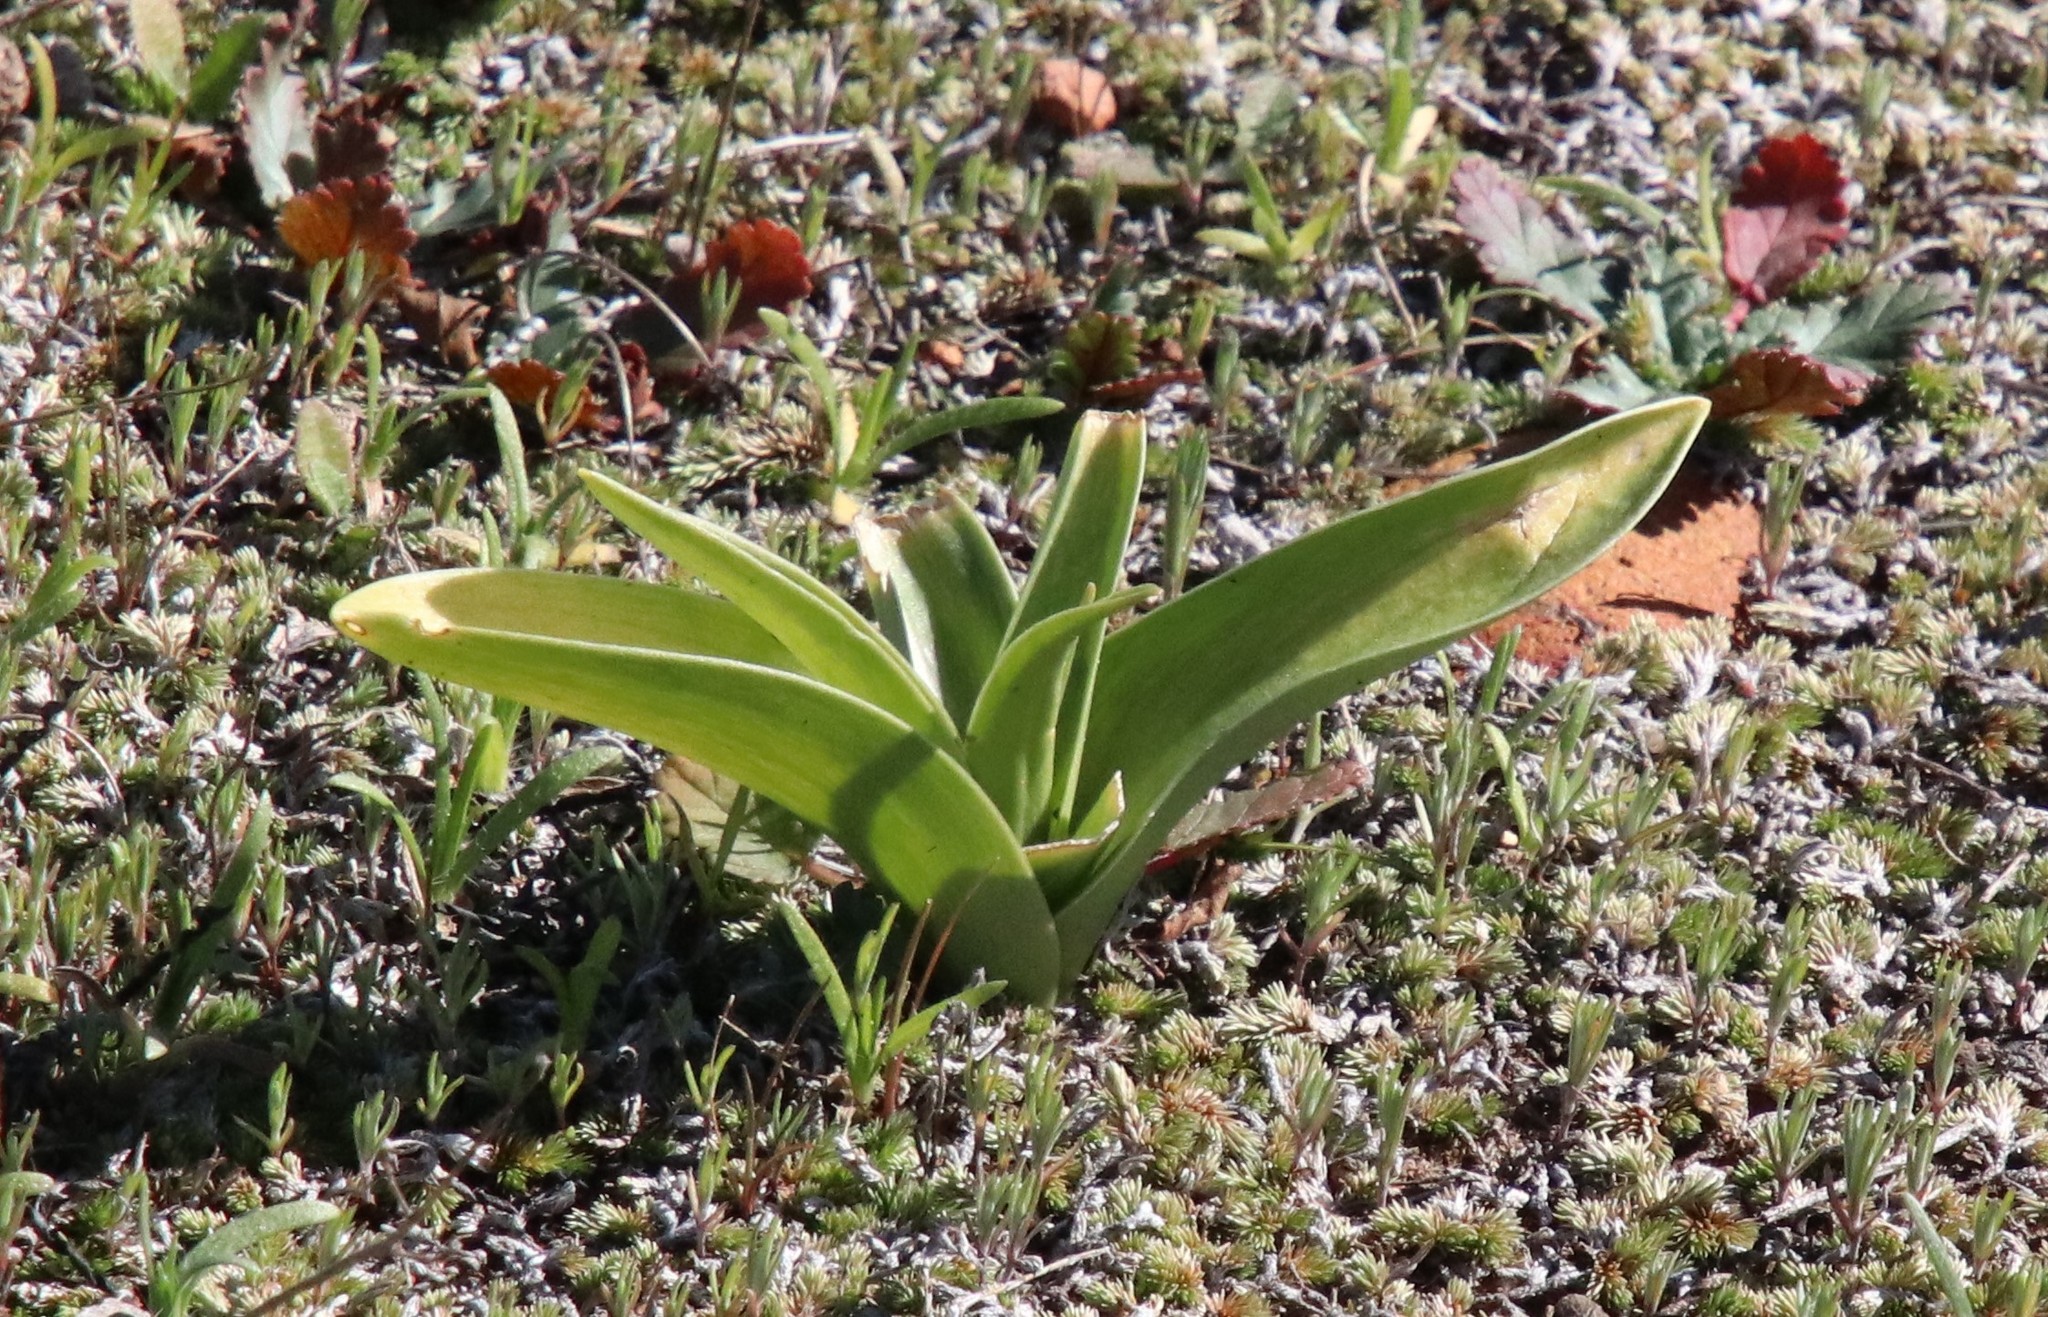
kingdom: Plantae
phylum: Tracheophyta
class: Liliopsida
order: Liliales
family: Liliaceae
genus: Fritillaria
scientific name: Fritillaria biflora
